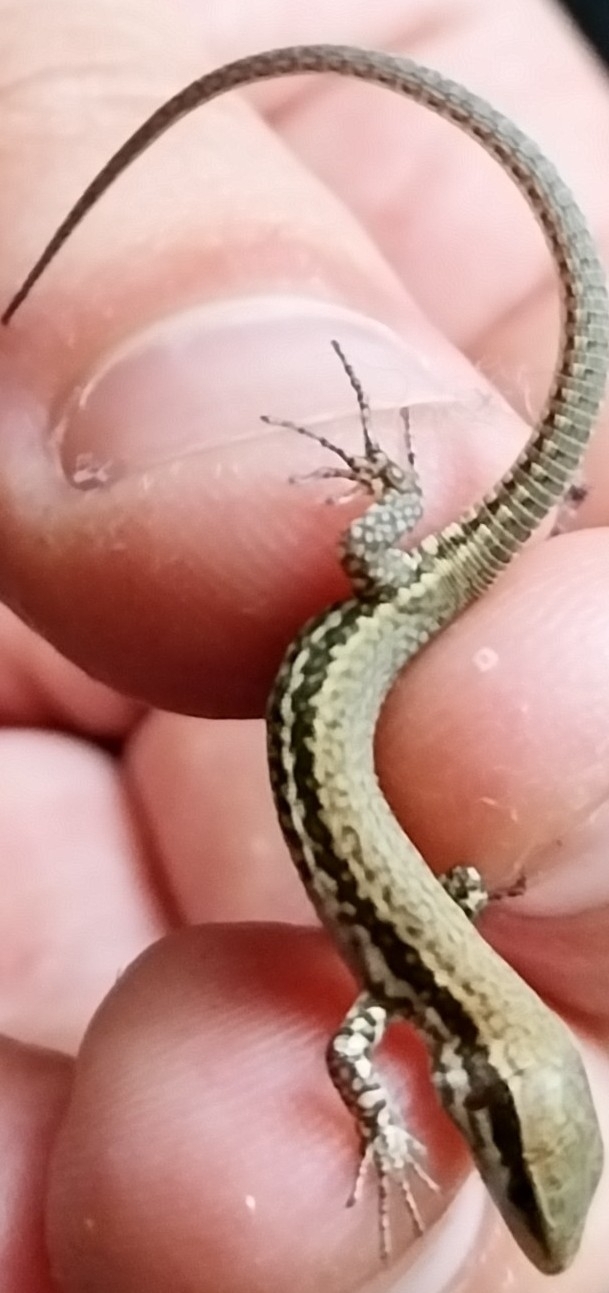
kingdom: Animalia
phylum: Chordata
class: Squamata
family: Lacertidae
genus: Podarcis
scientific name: Podarcis muralis
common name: Common wall lizard
